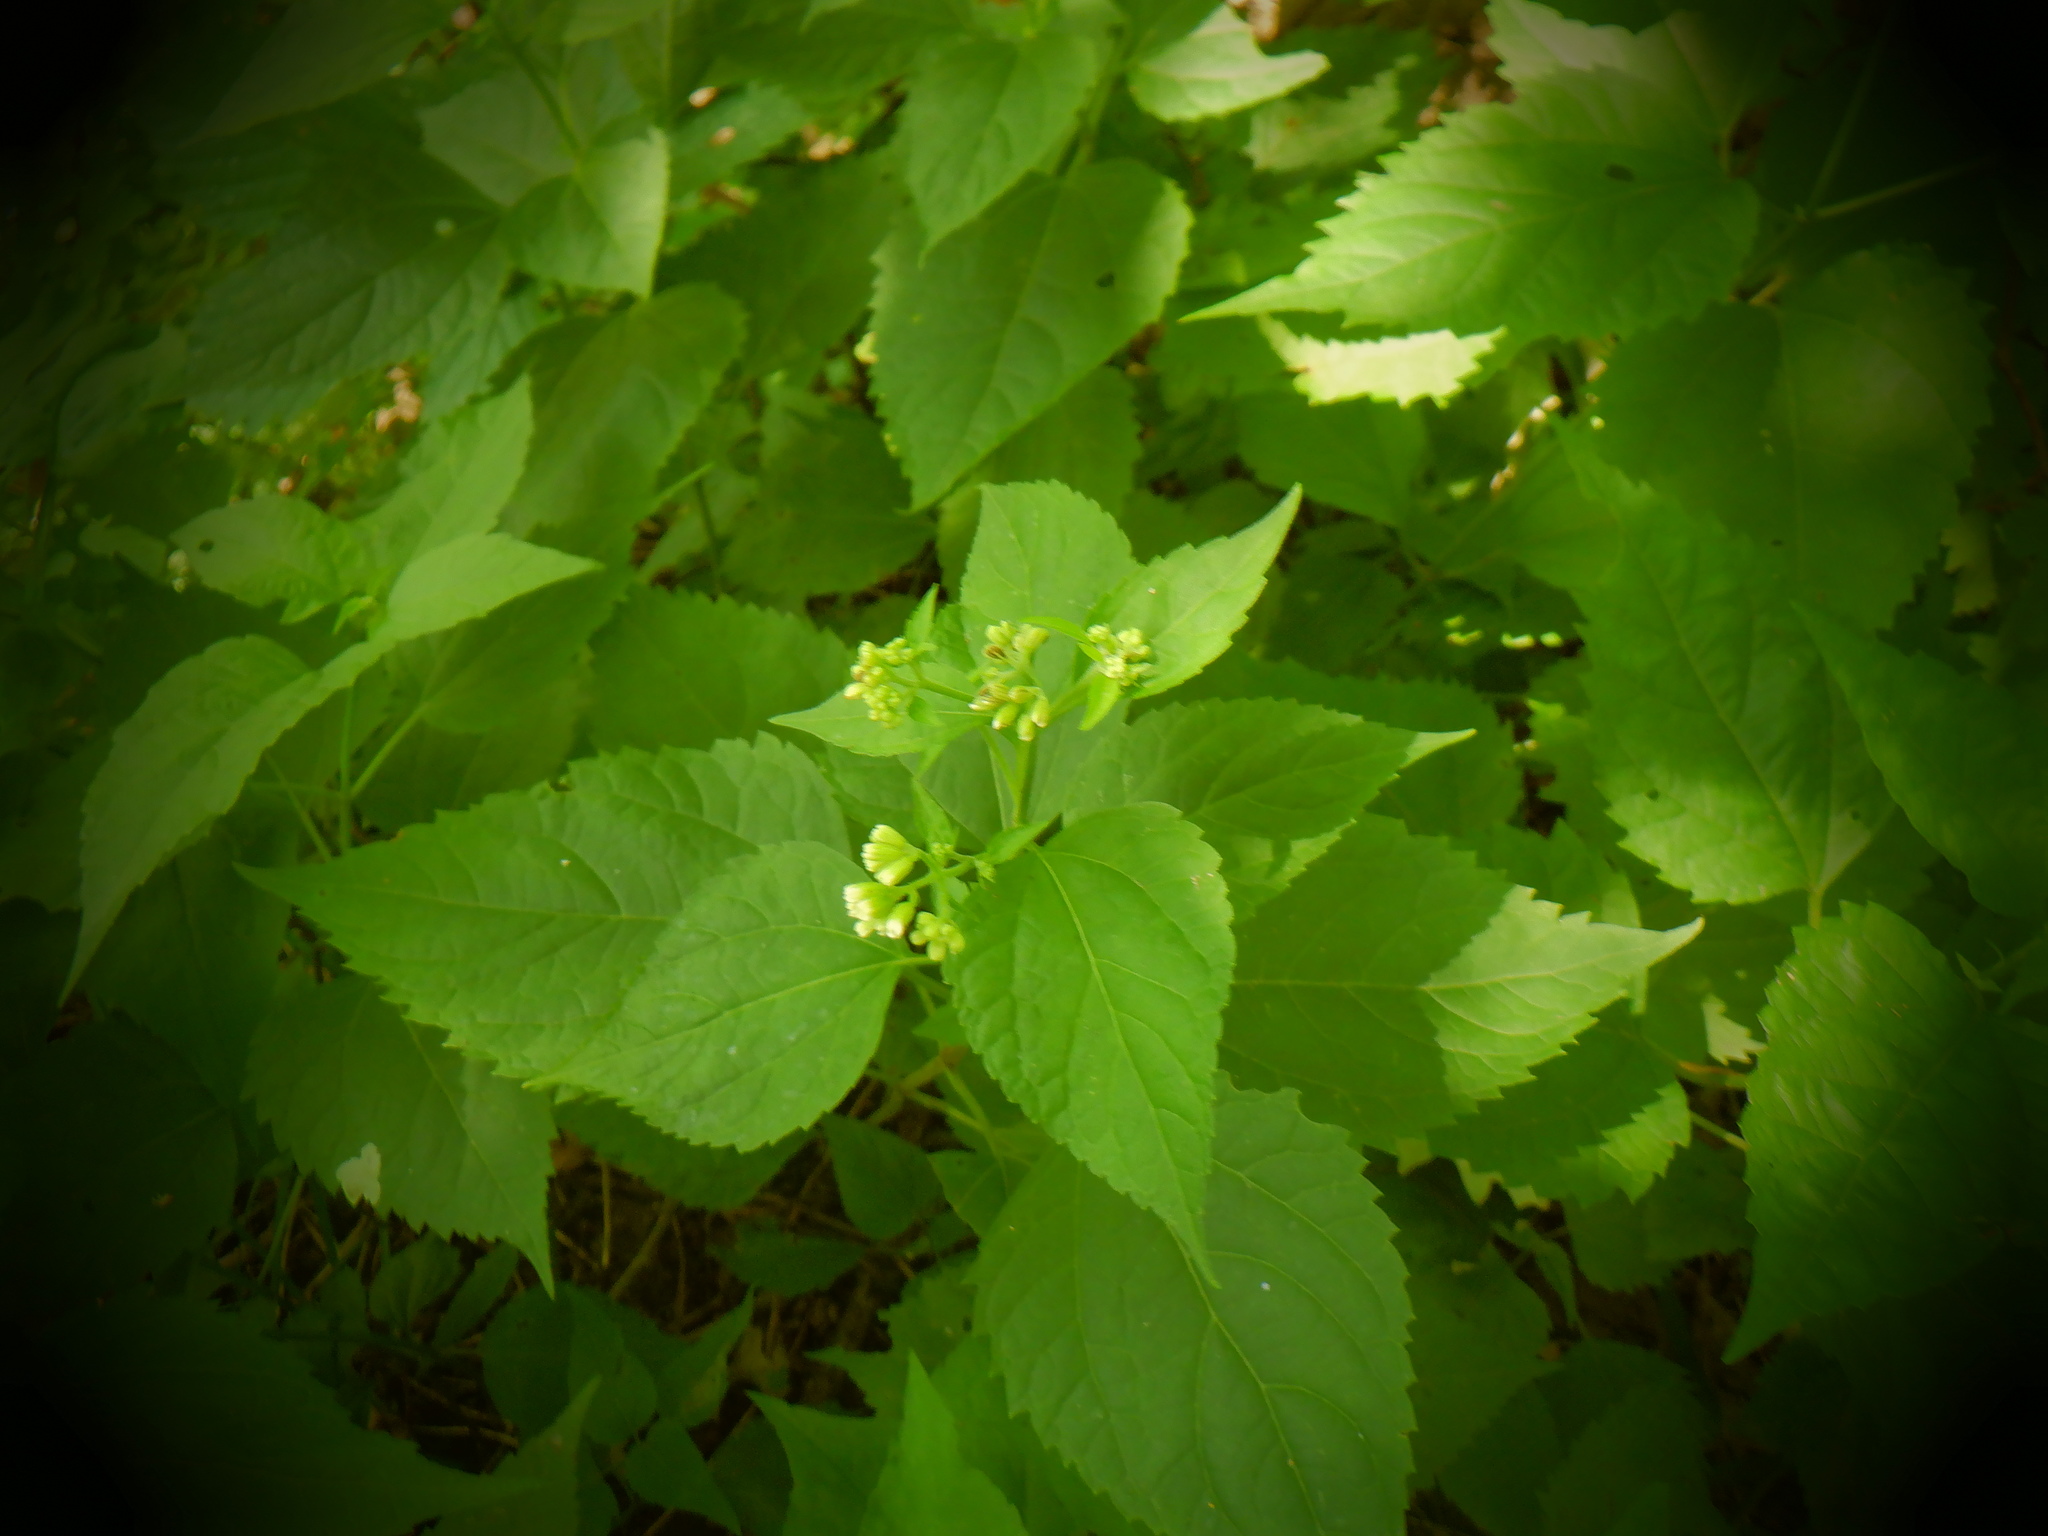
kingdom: Plantae
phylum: Tracheophyta
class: Magnoliopsida
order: Asterales
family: Asteraceae
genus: Ageratina
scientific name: Ageratina altissima
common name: White snakeroot
